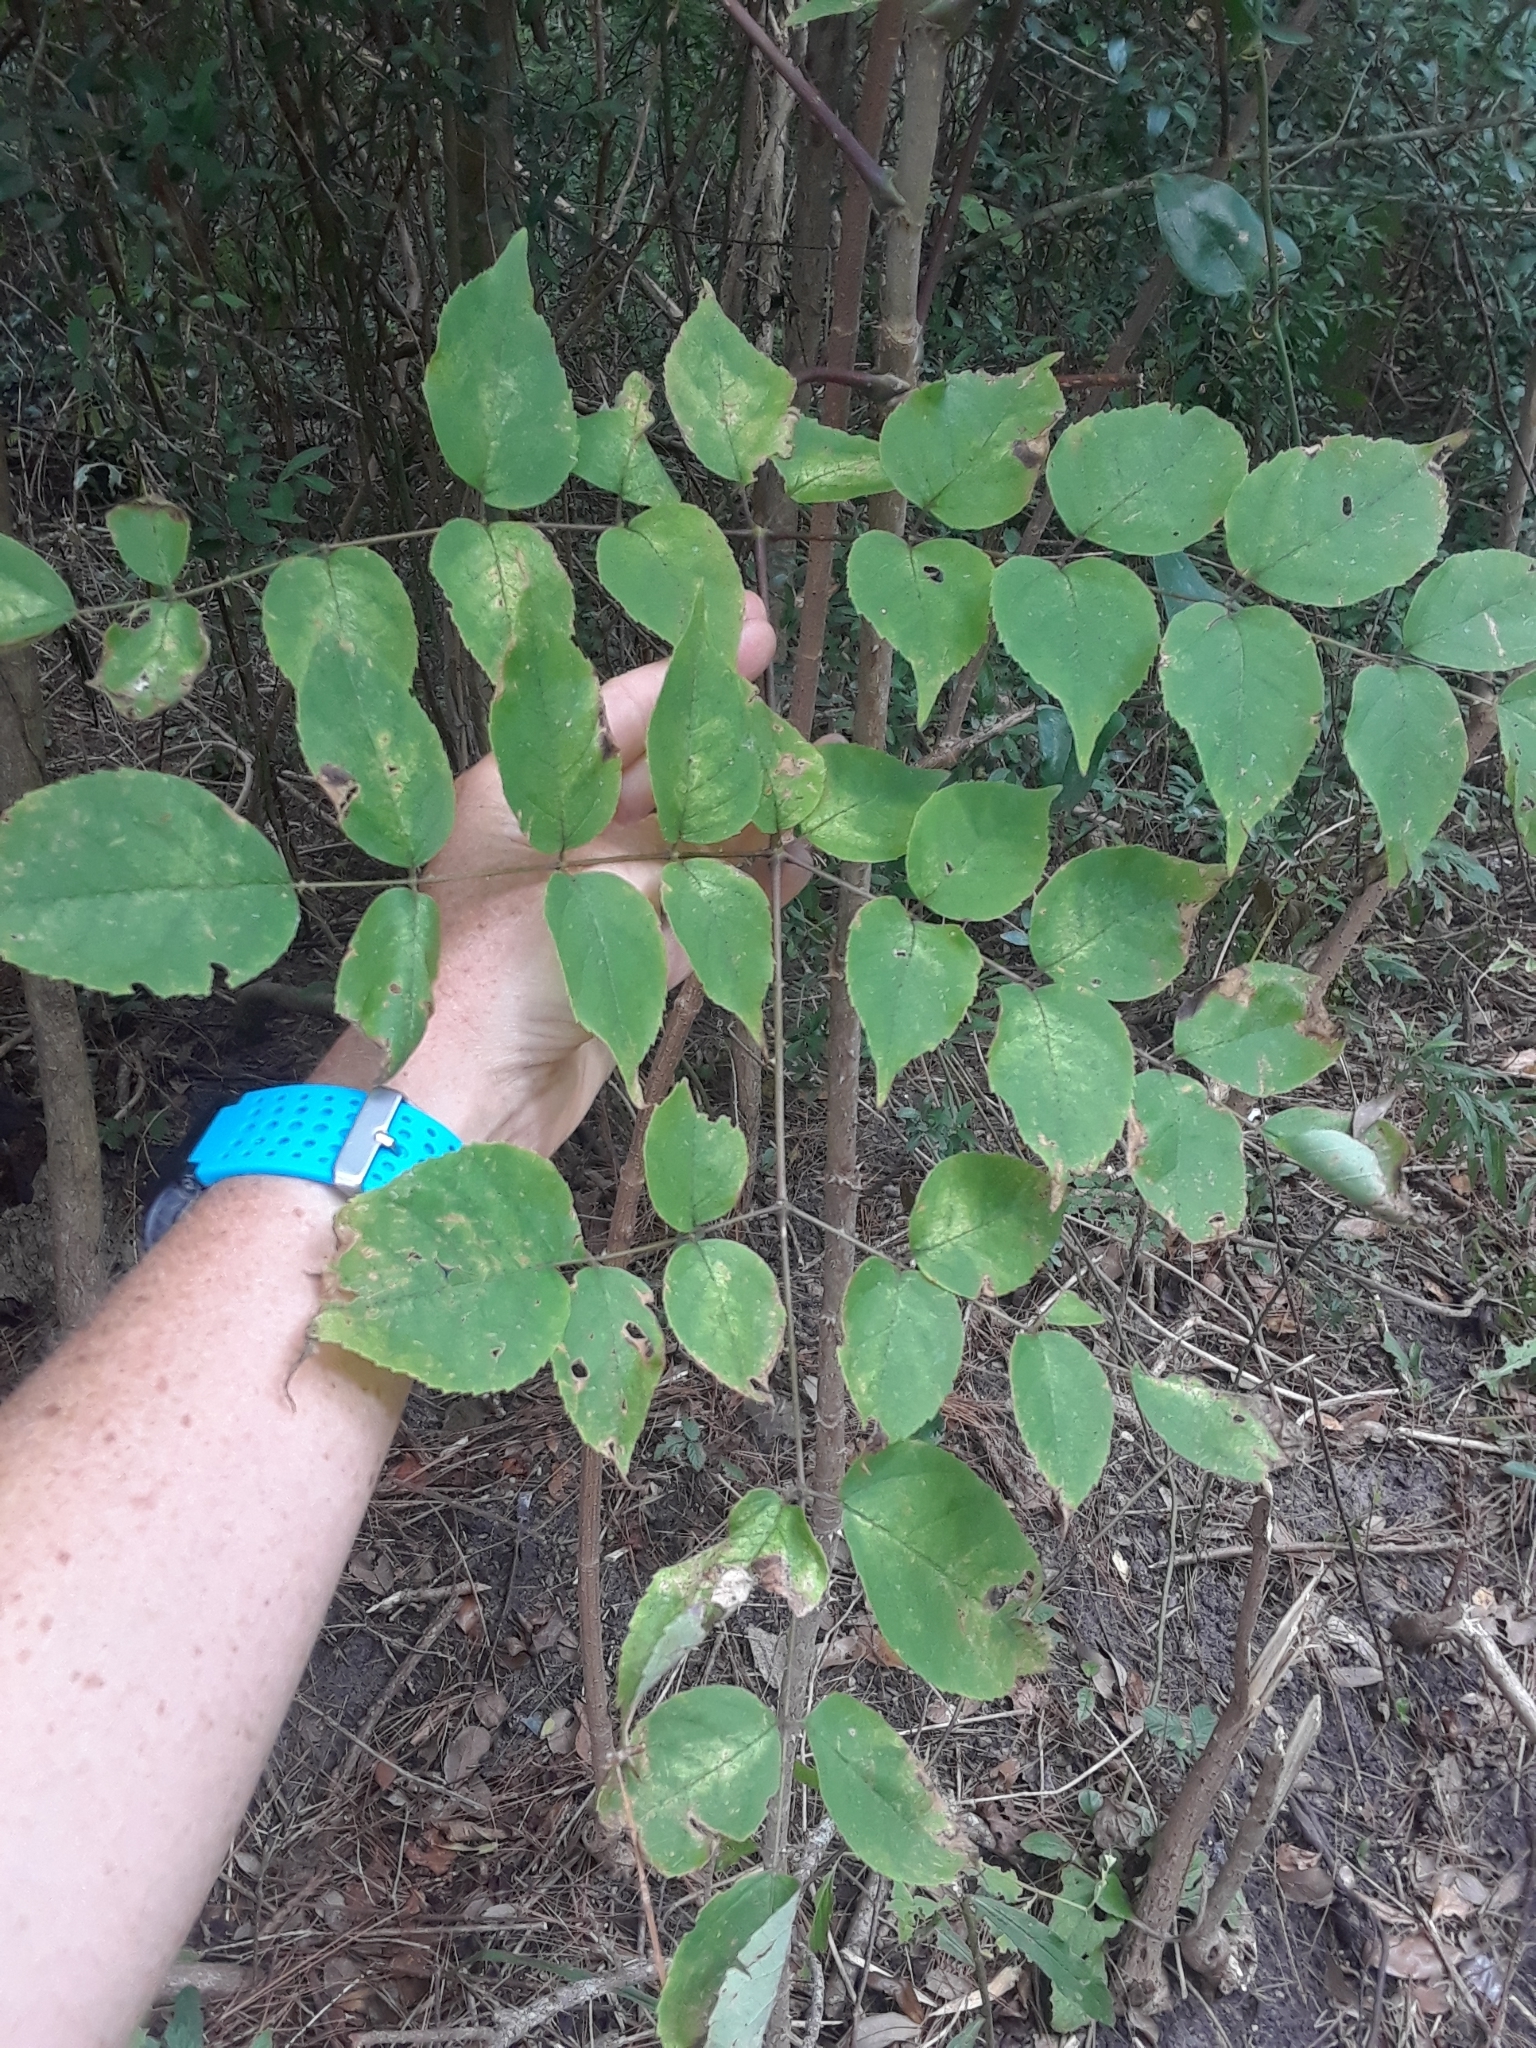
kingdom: Plantae
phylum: Tracheophyta
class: Magnoliopsida
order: Apiales
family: Araliaceae
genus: Aralia
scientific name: Aralia spinosa
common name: Hercules'-club
